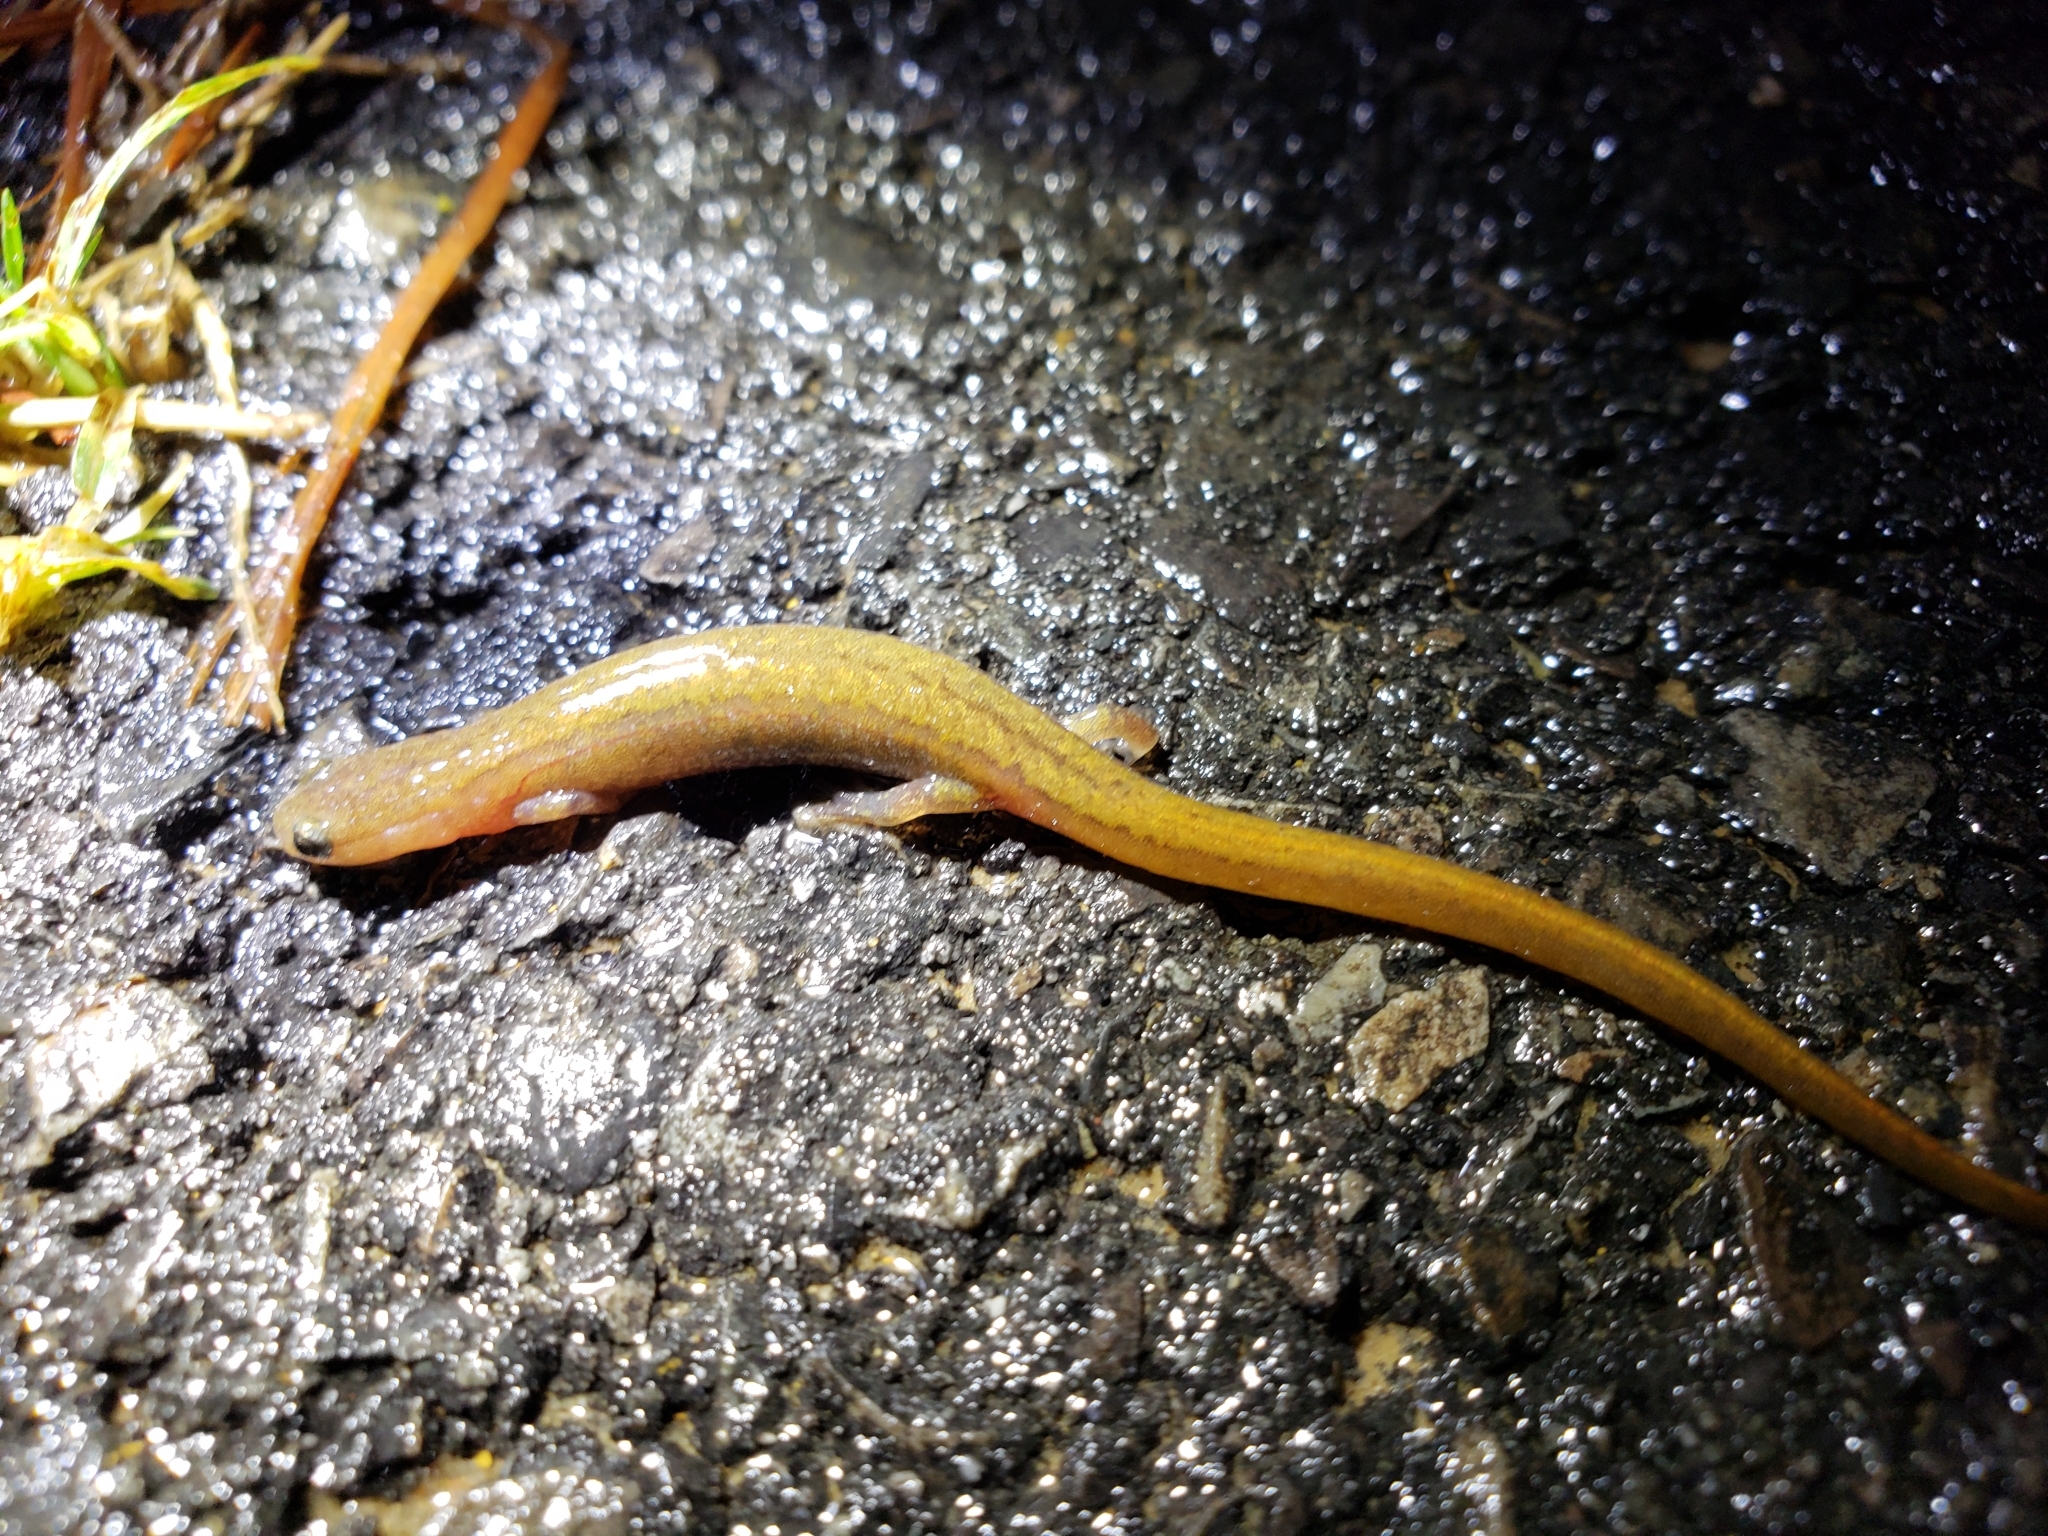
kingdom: Animalia
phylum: Chordata
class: Amphibia
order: Caudata
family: Plethodontidae
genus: Eurycea
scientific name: Eurycea paludicola
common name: Western dwarf salamander
